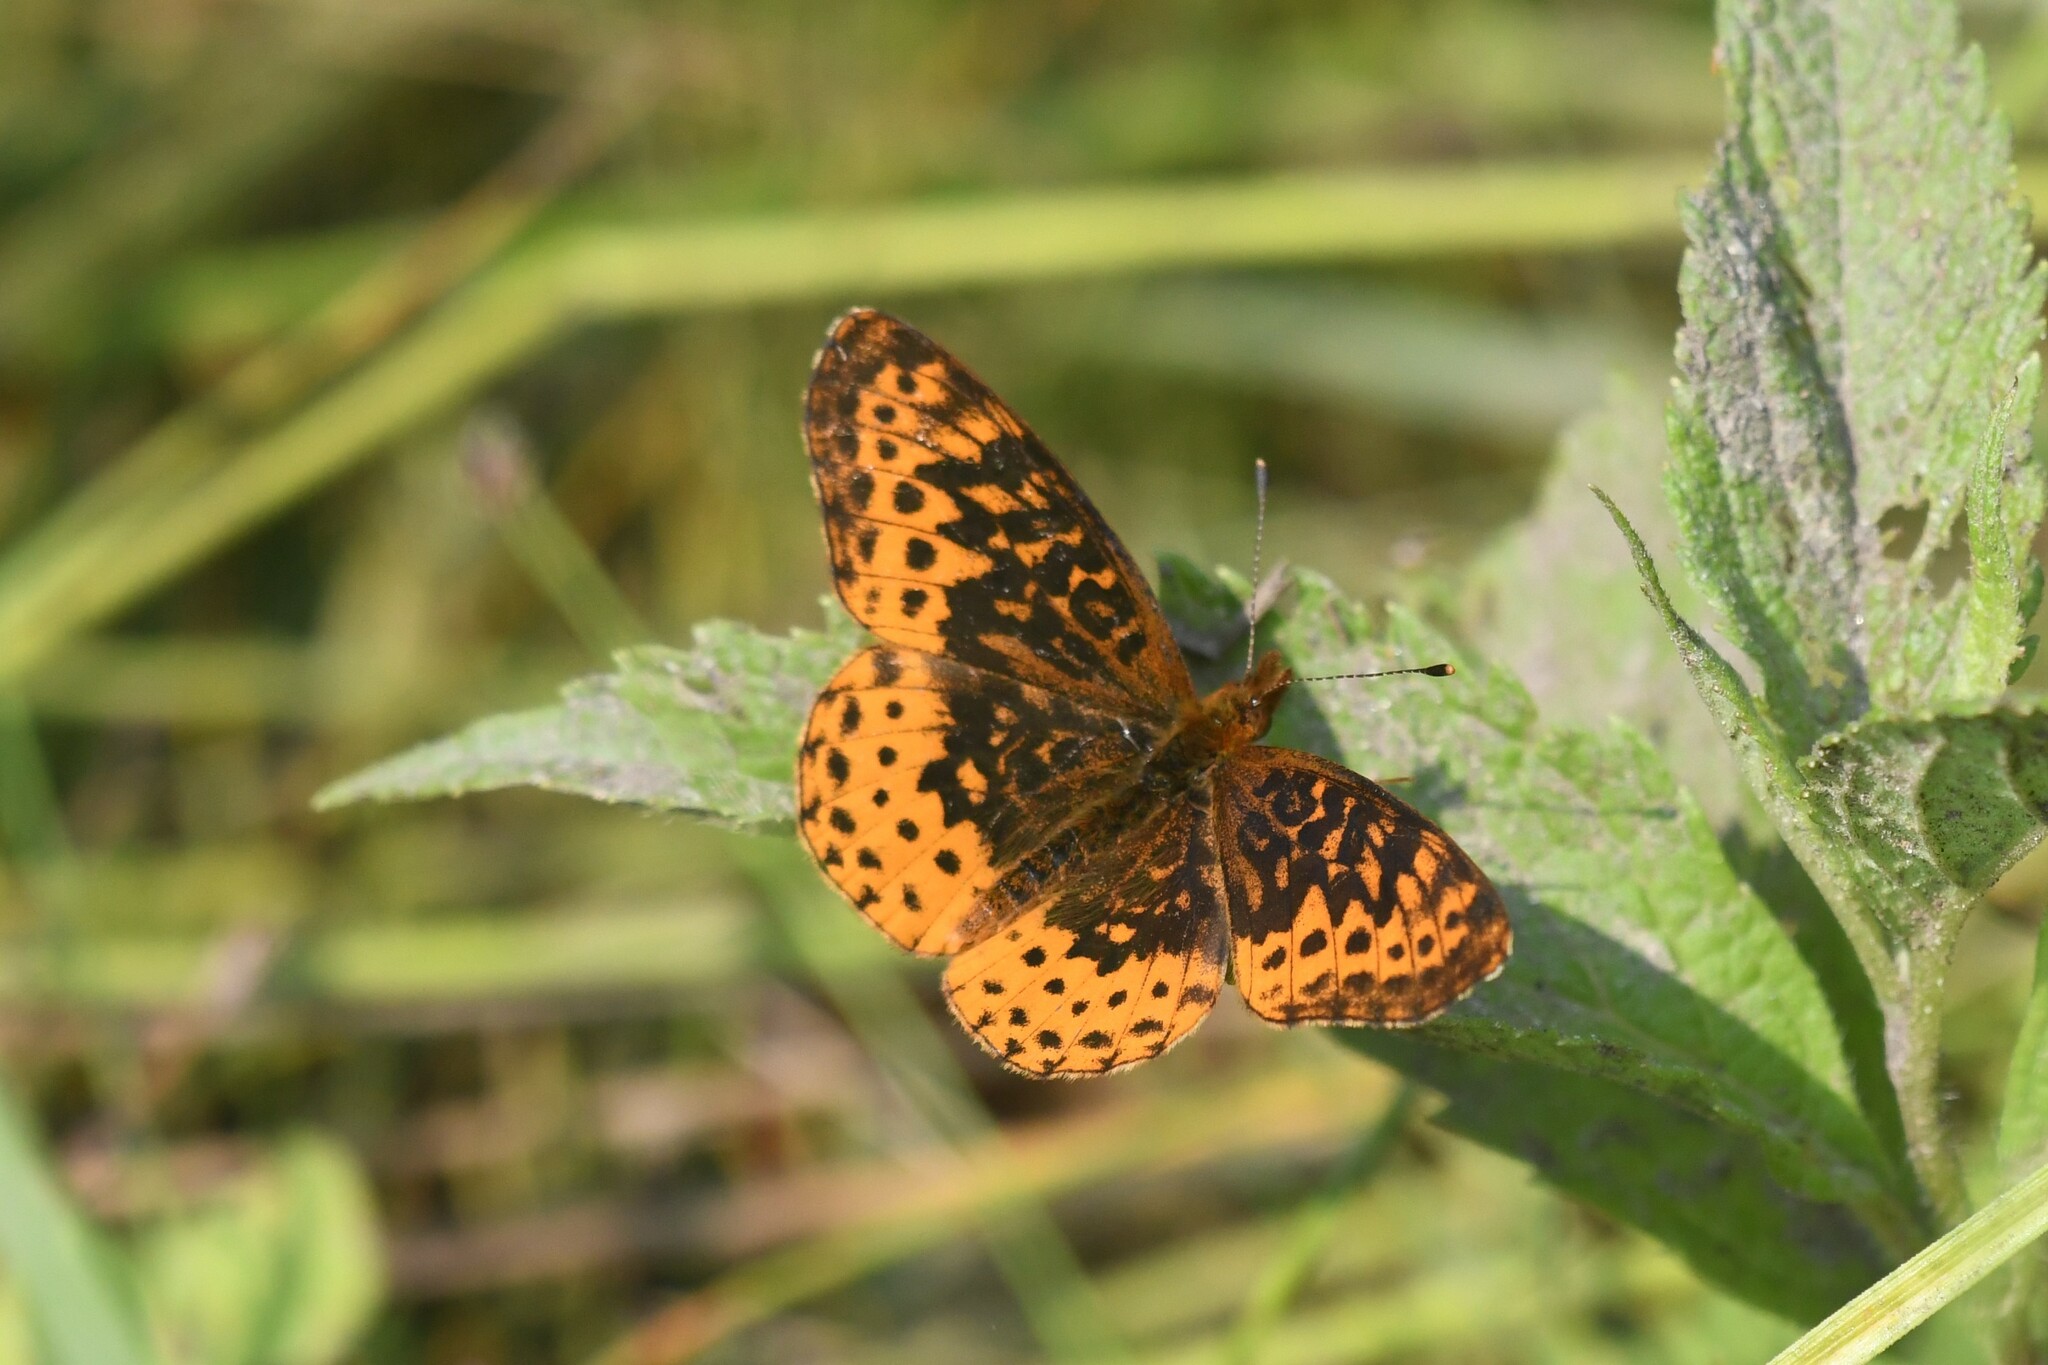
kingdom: Animalia
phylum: Arthropoda
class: Insecta
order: Lepidoptera
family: Nymphalidae
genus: Clossiana
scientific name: Clossiana toddi
